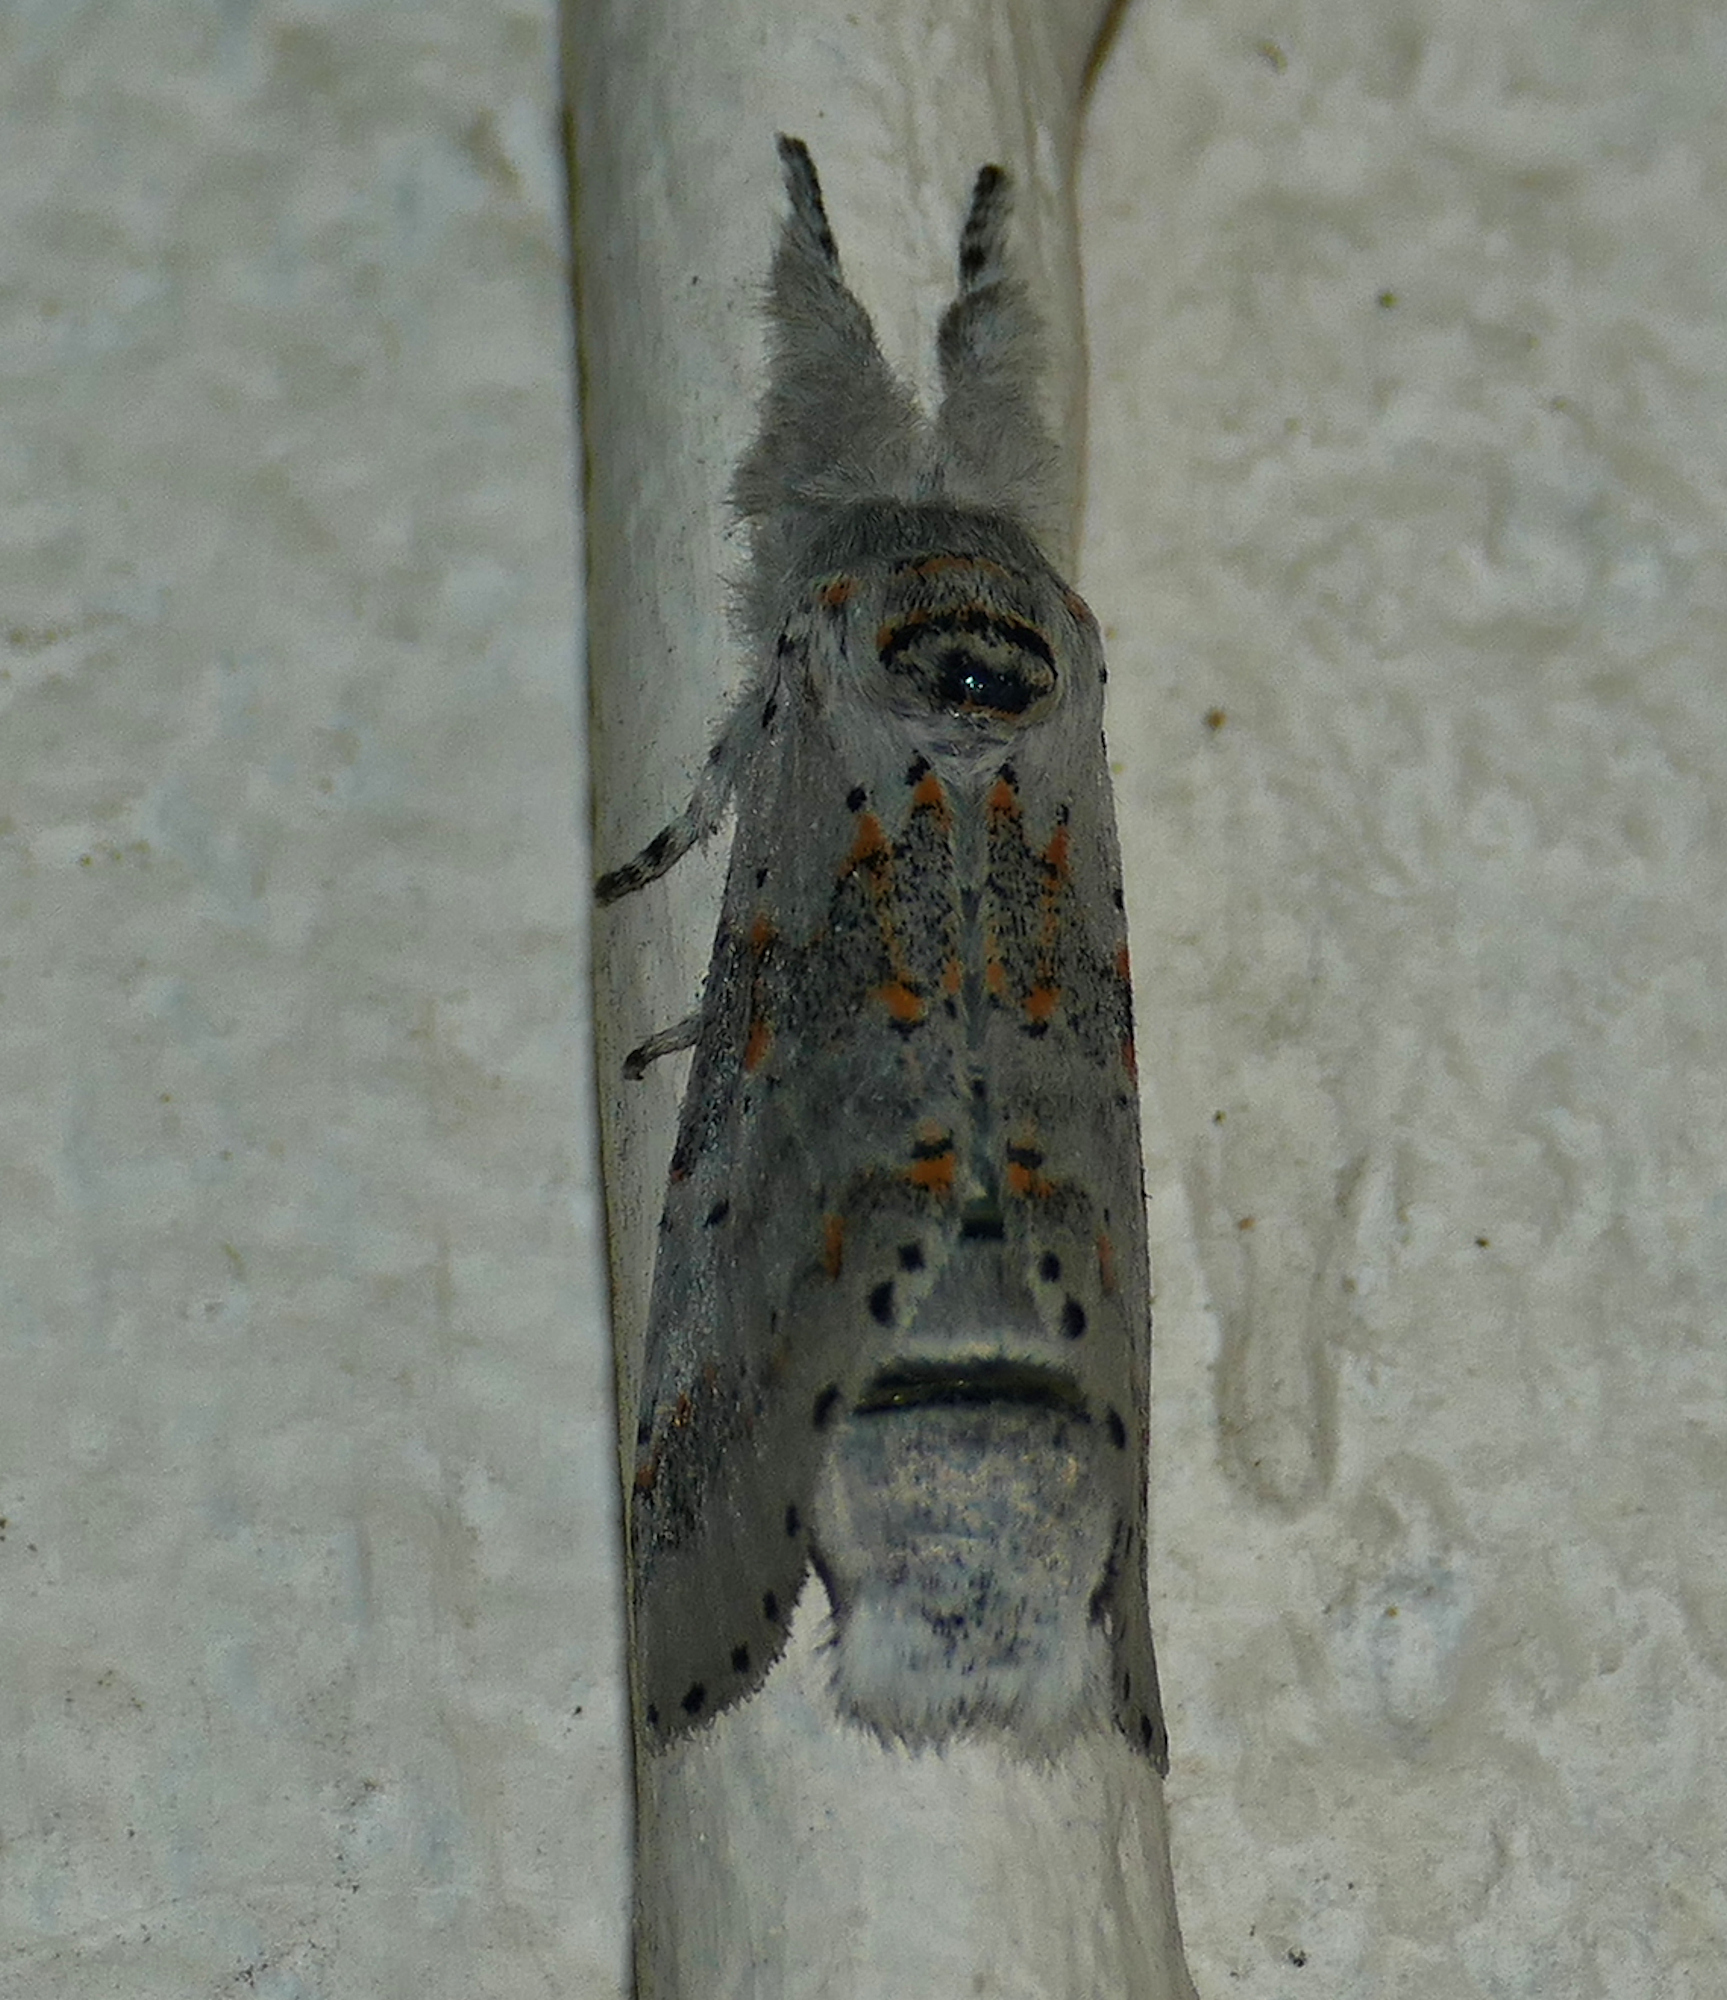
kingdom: Animalia
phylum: Arthropoda
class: Insecta
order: Lepidoptera
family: Notodontidae
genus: Furcula
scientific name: Furcula cinerea
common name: Gray furcula
